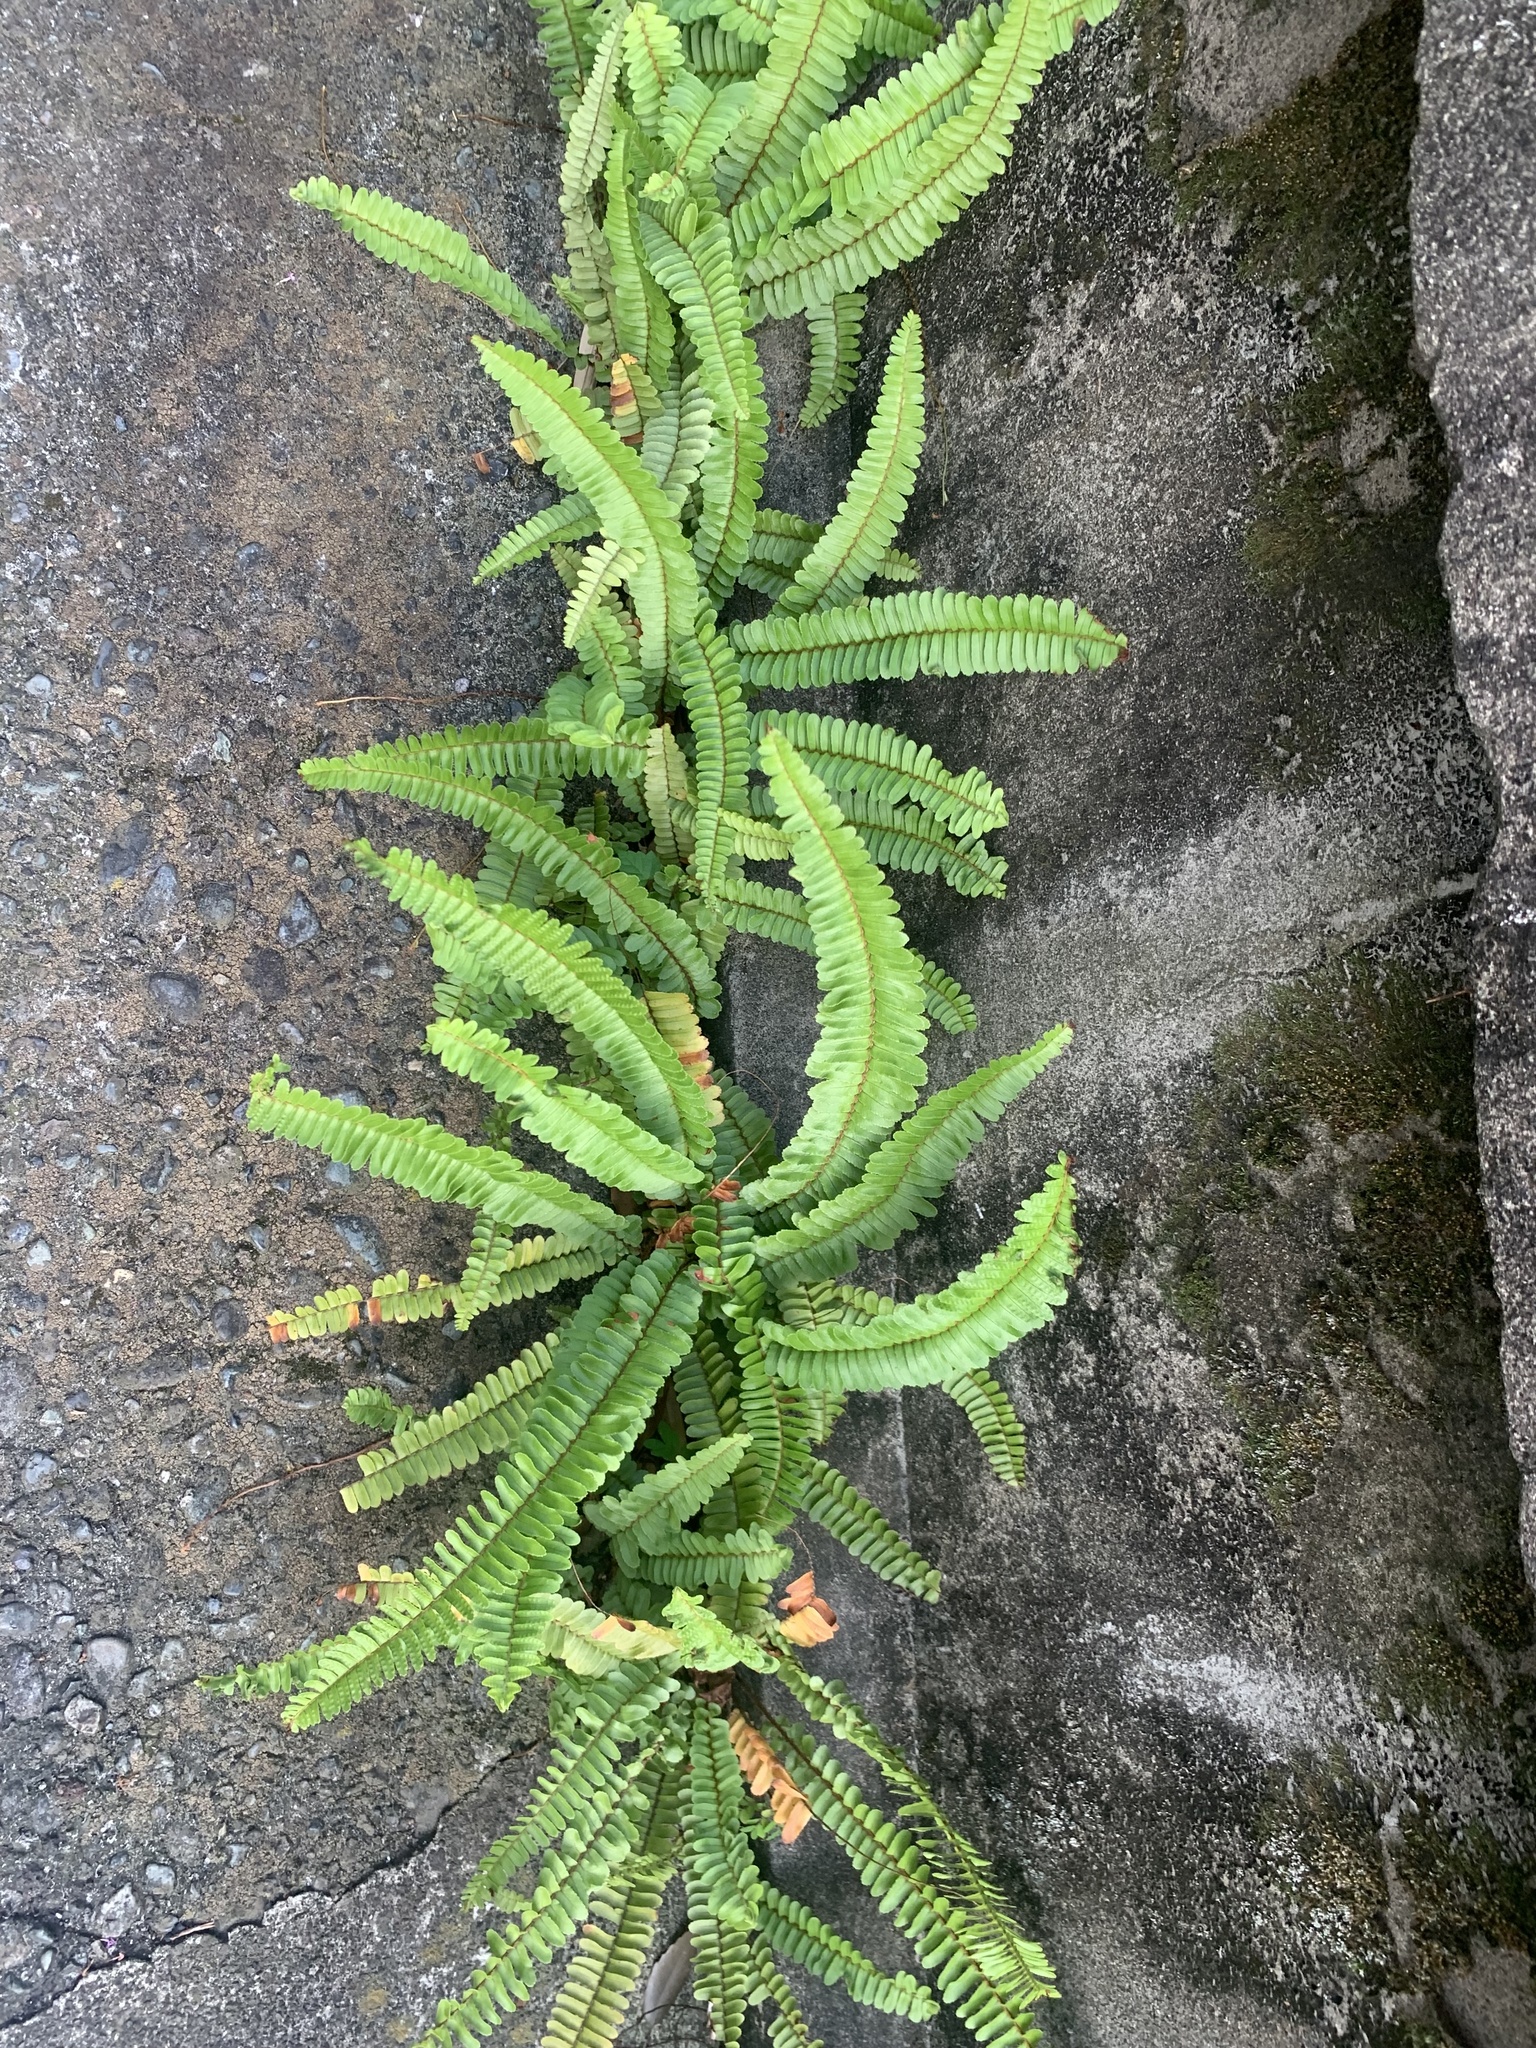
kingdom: Plantae
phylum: Tracheophyta
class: Polypodiopsida
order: Polypodiales
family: Nephrolepidaceae
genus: Nephrolepis
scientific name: Nephrolepis cordifolia
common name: Narrow swordfern
